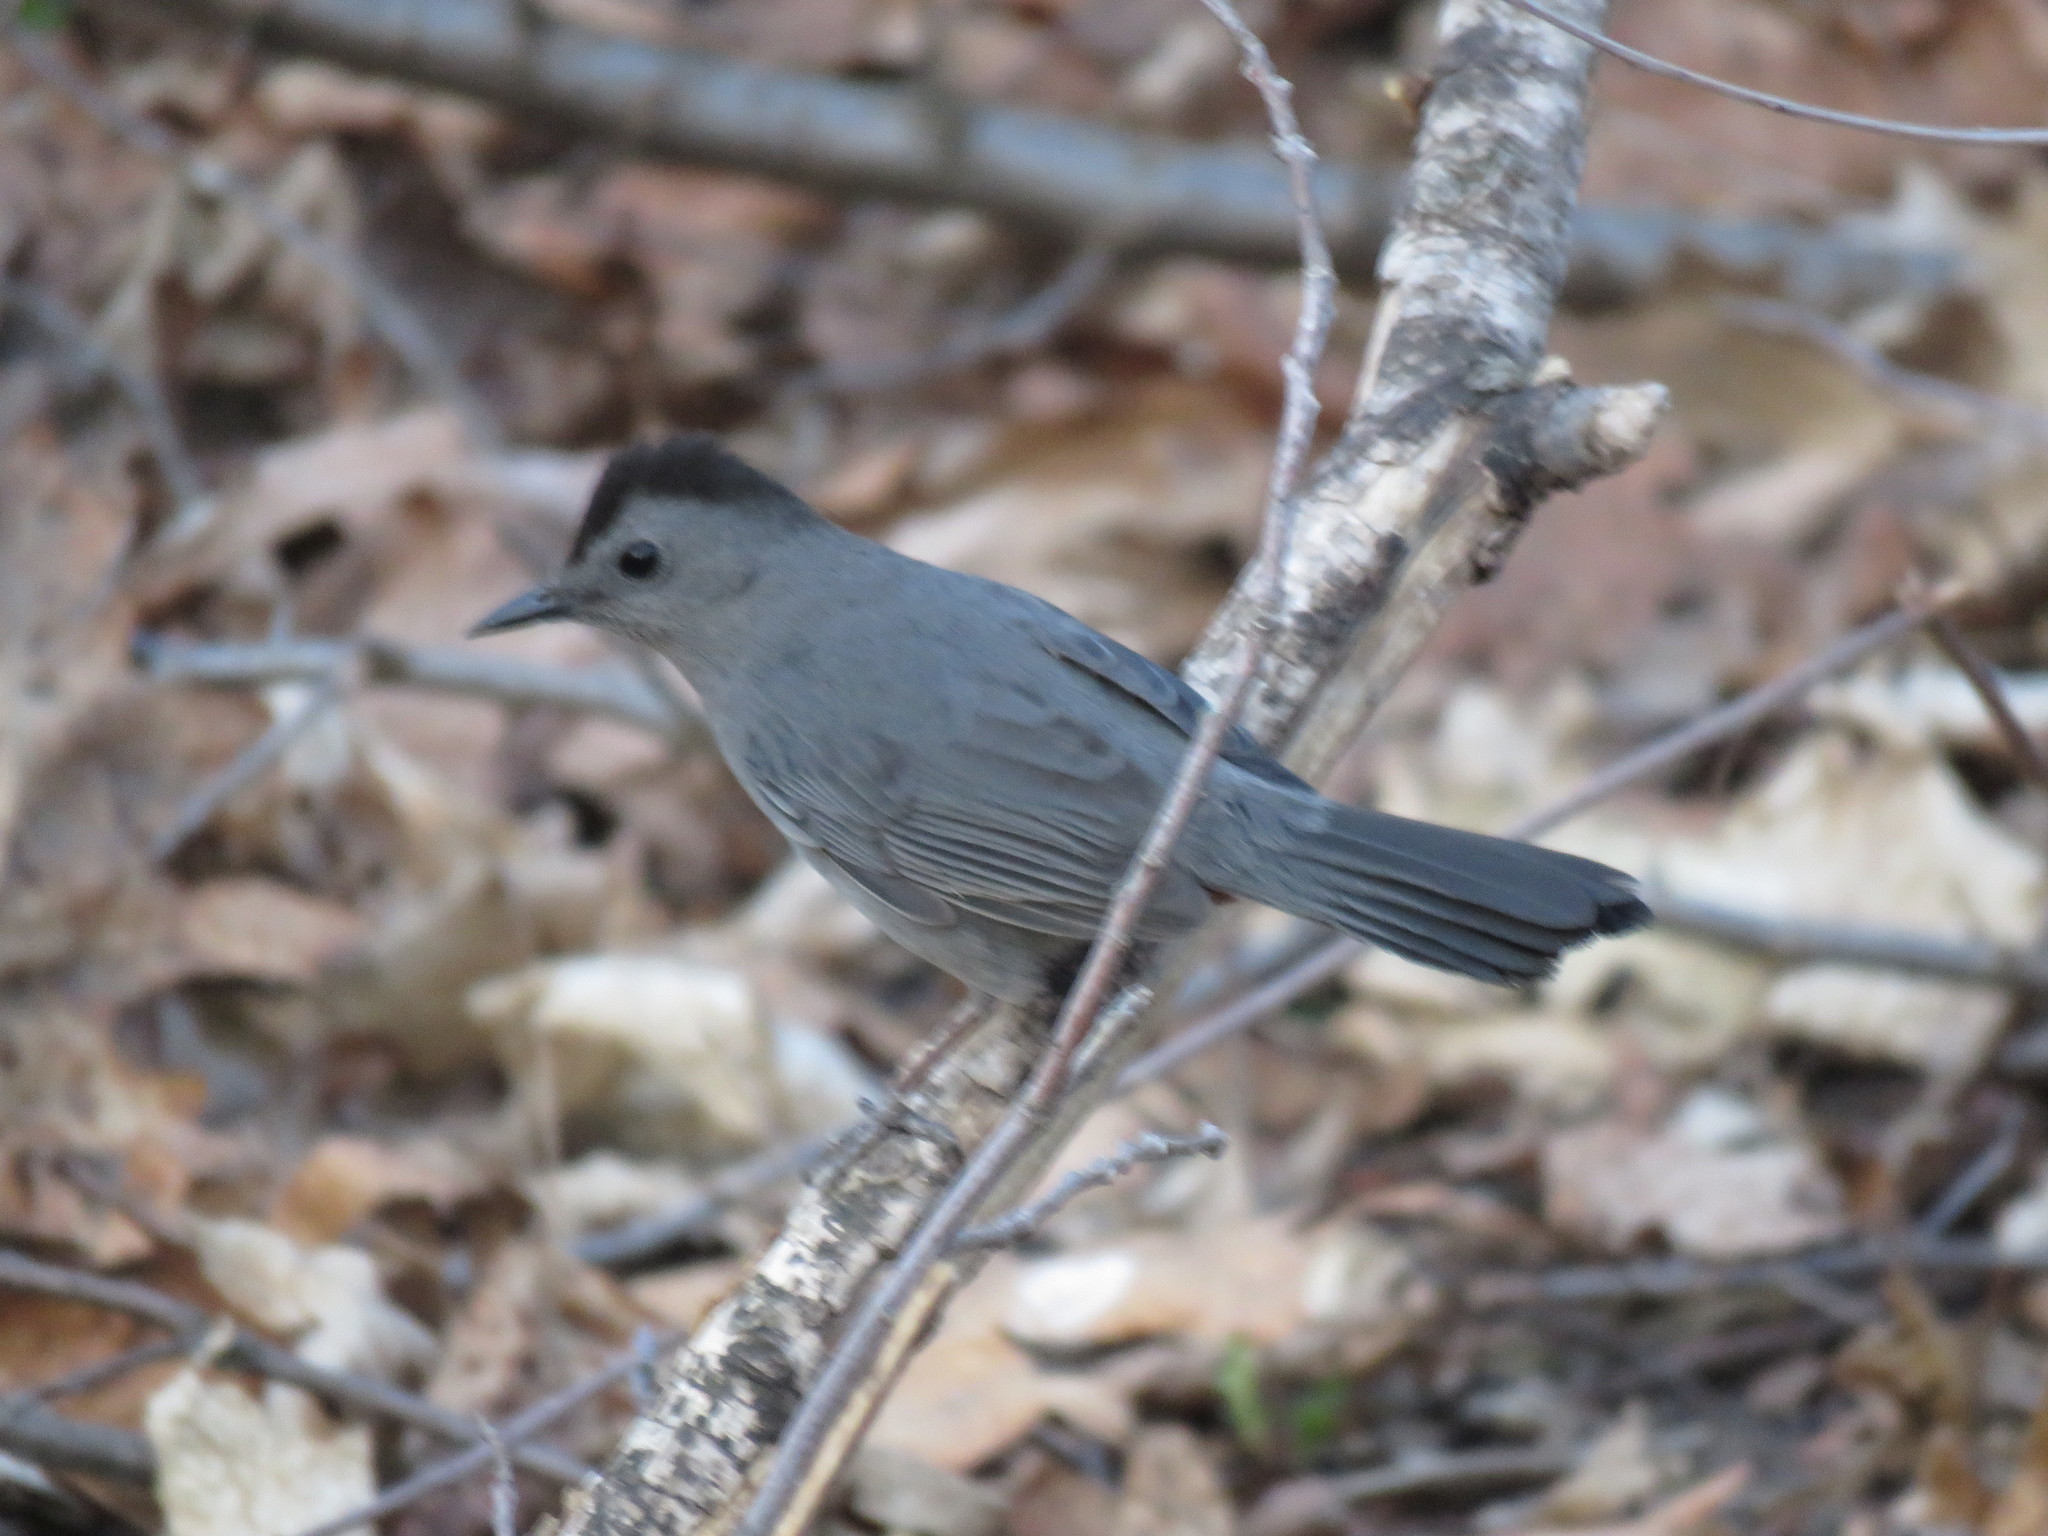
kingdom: Animalia
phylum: Chordata
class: Aves
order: Passeriformes
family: Mimidae
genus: Dumetella
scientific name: Dumetella carolinensis
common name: Gray catbird
